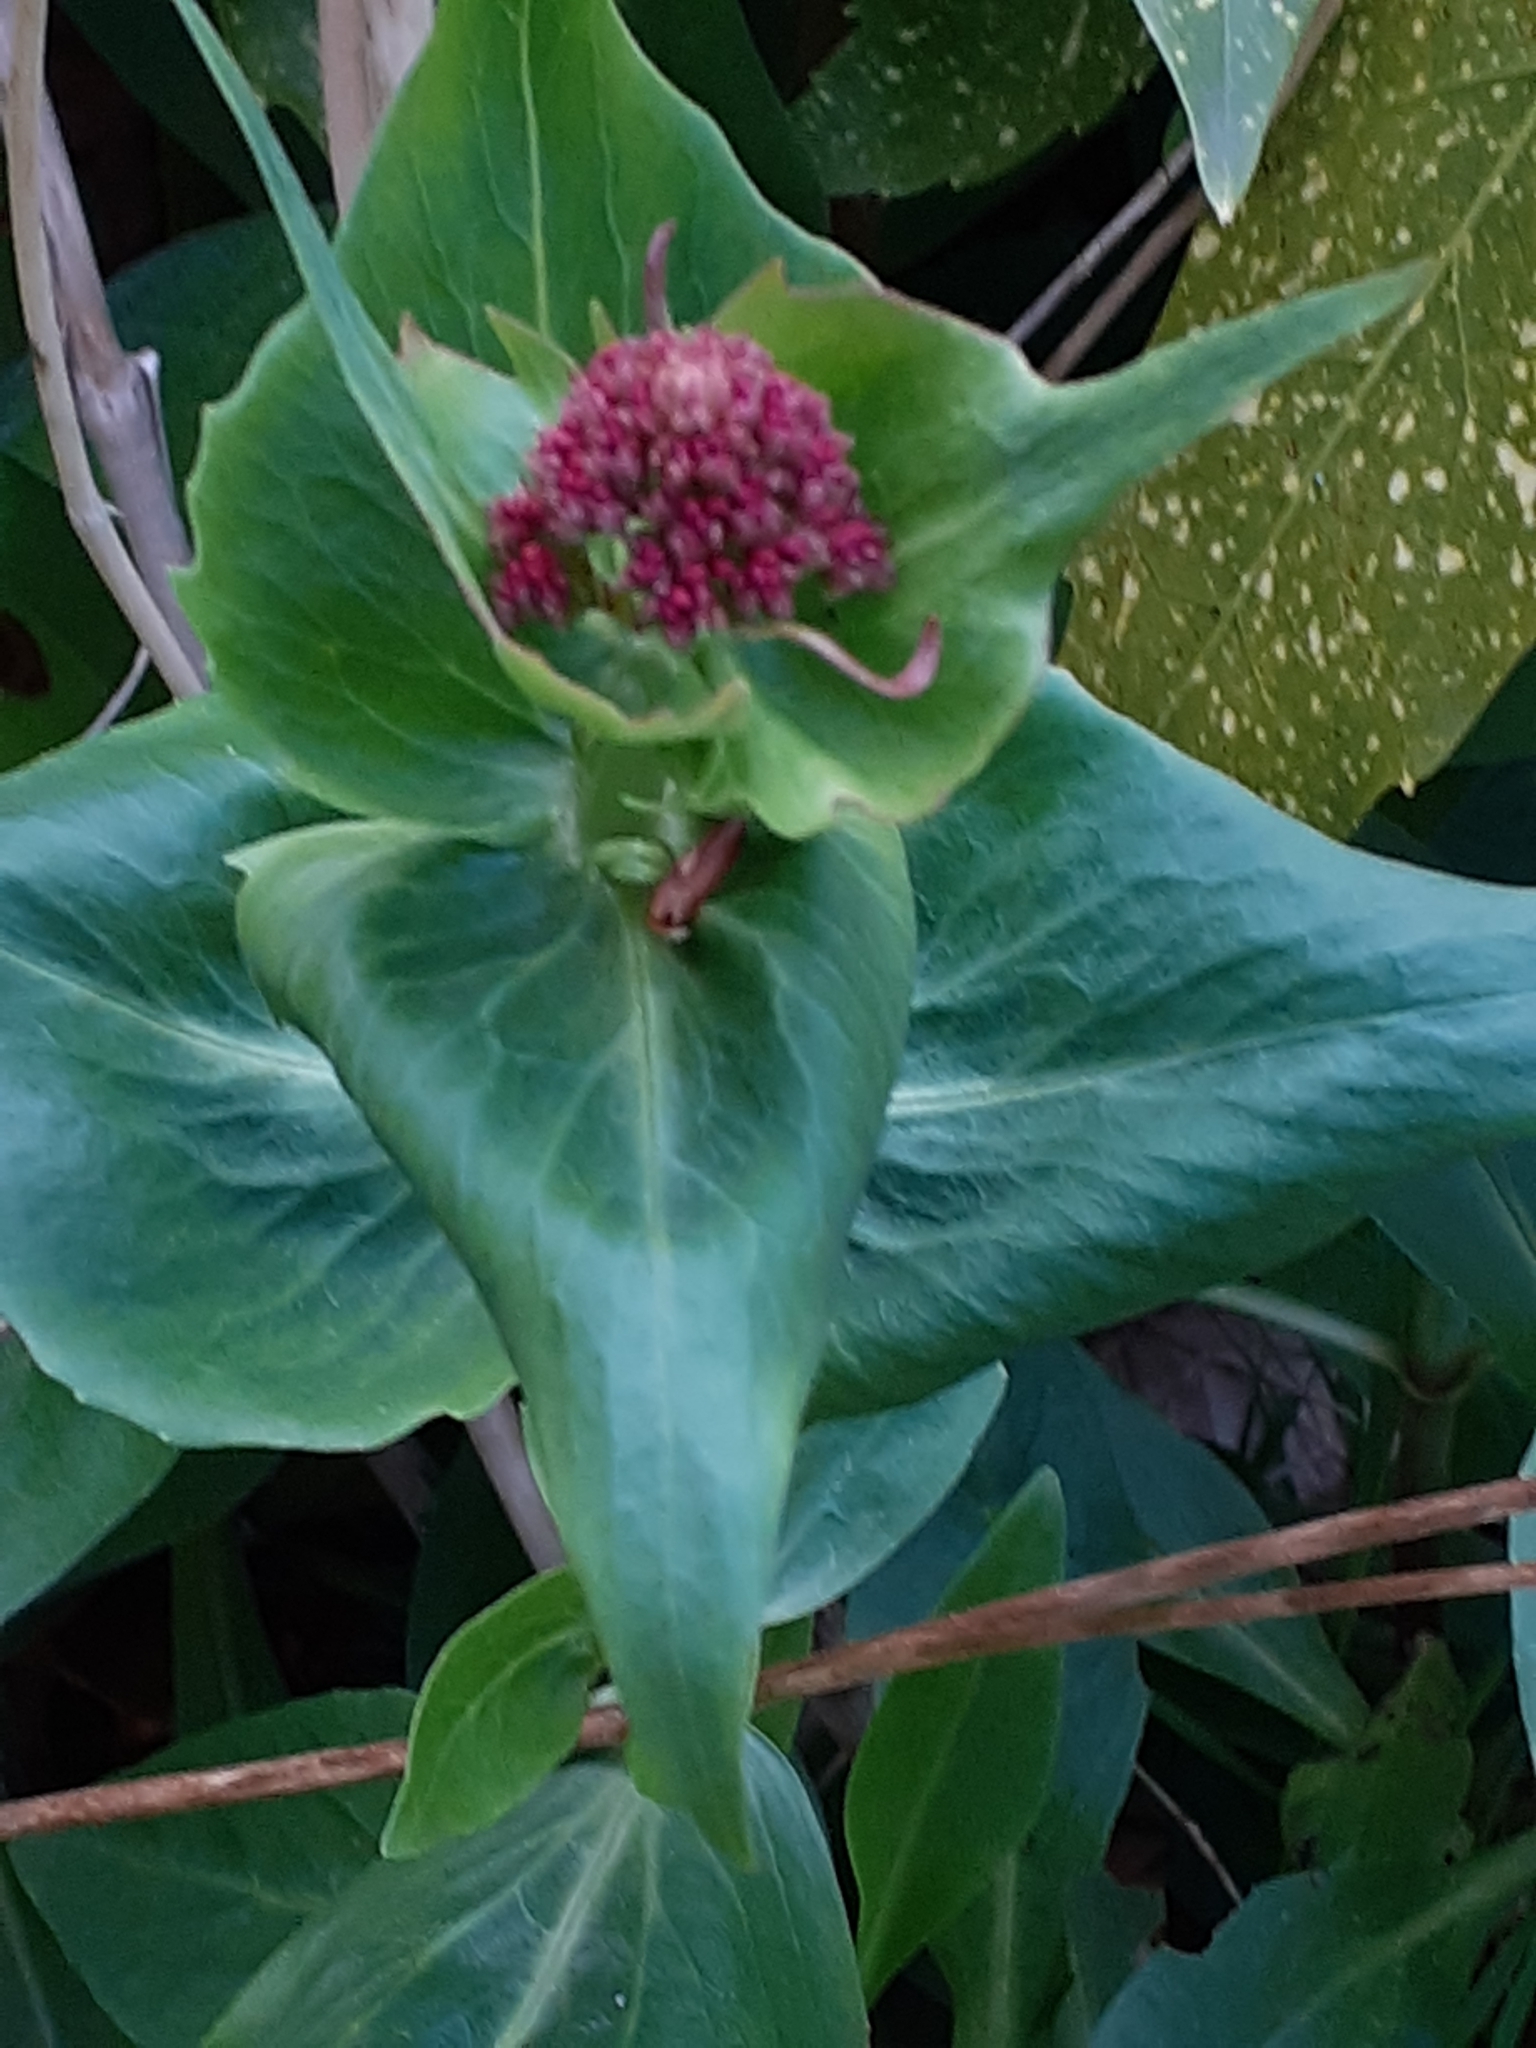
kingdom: Plantae
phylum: Tracheophyta
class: Magnoliopsida
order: Dipsacales
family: Caprifoliaceae
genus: Centranthus
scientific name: Centranthus ruber
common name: Red valerian
